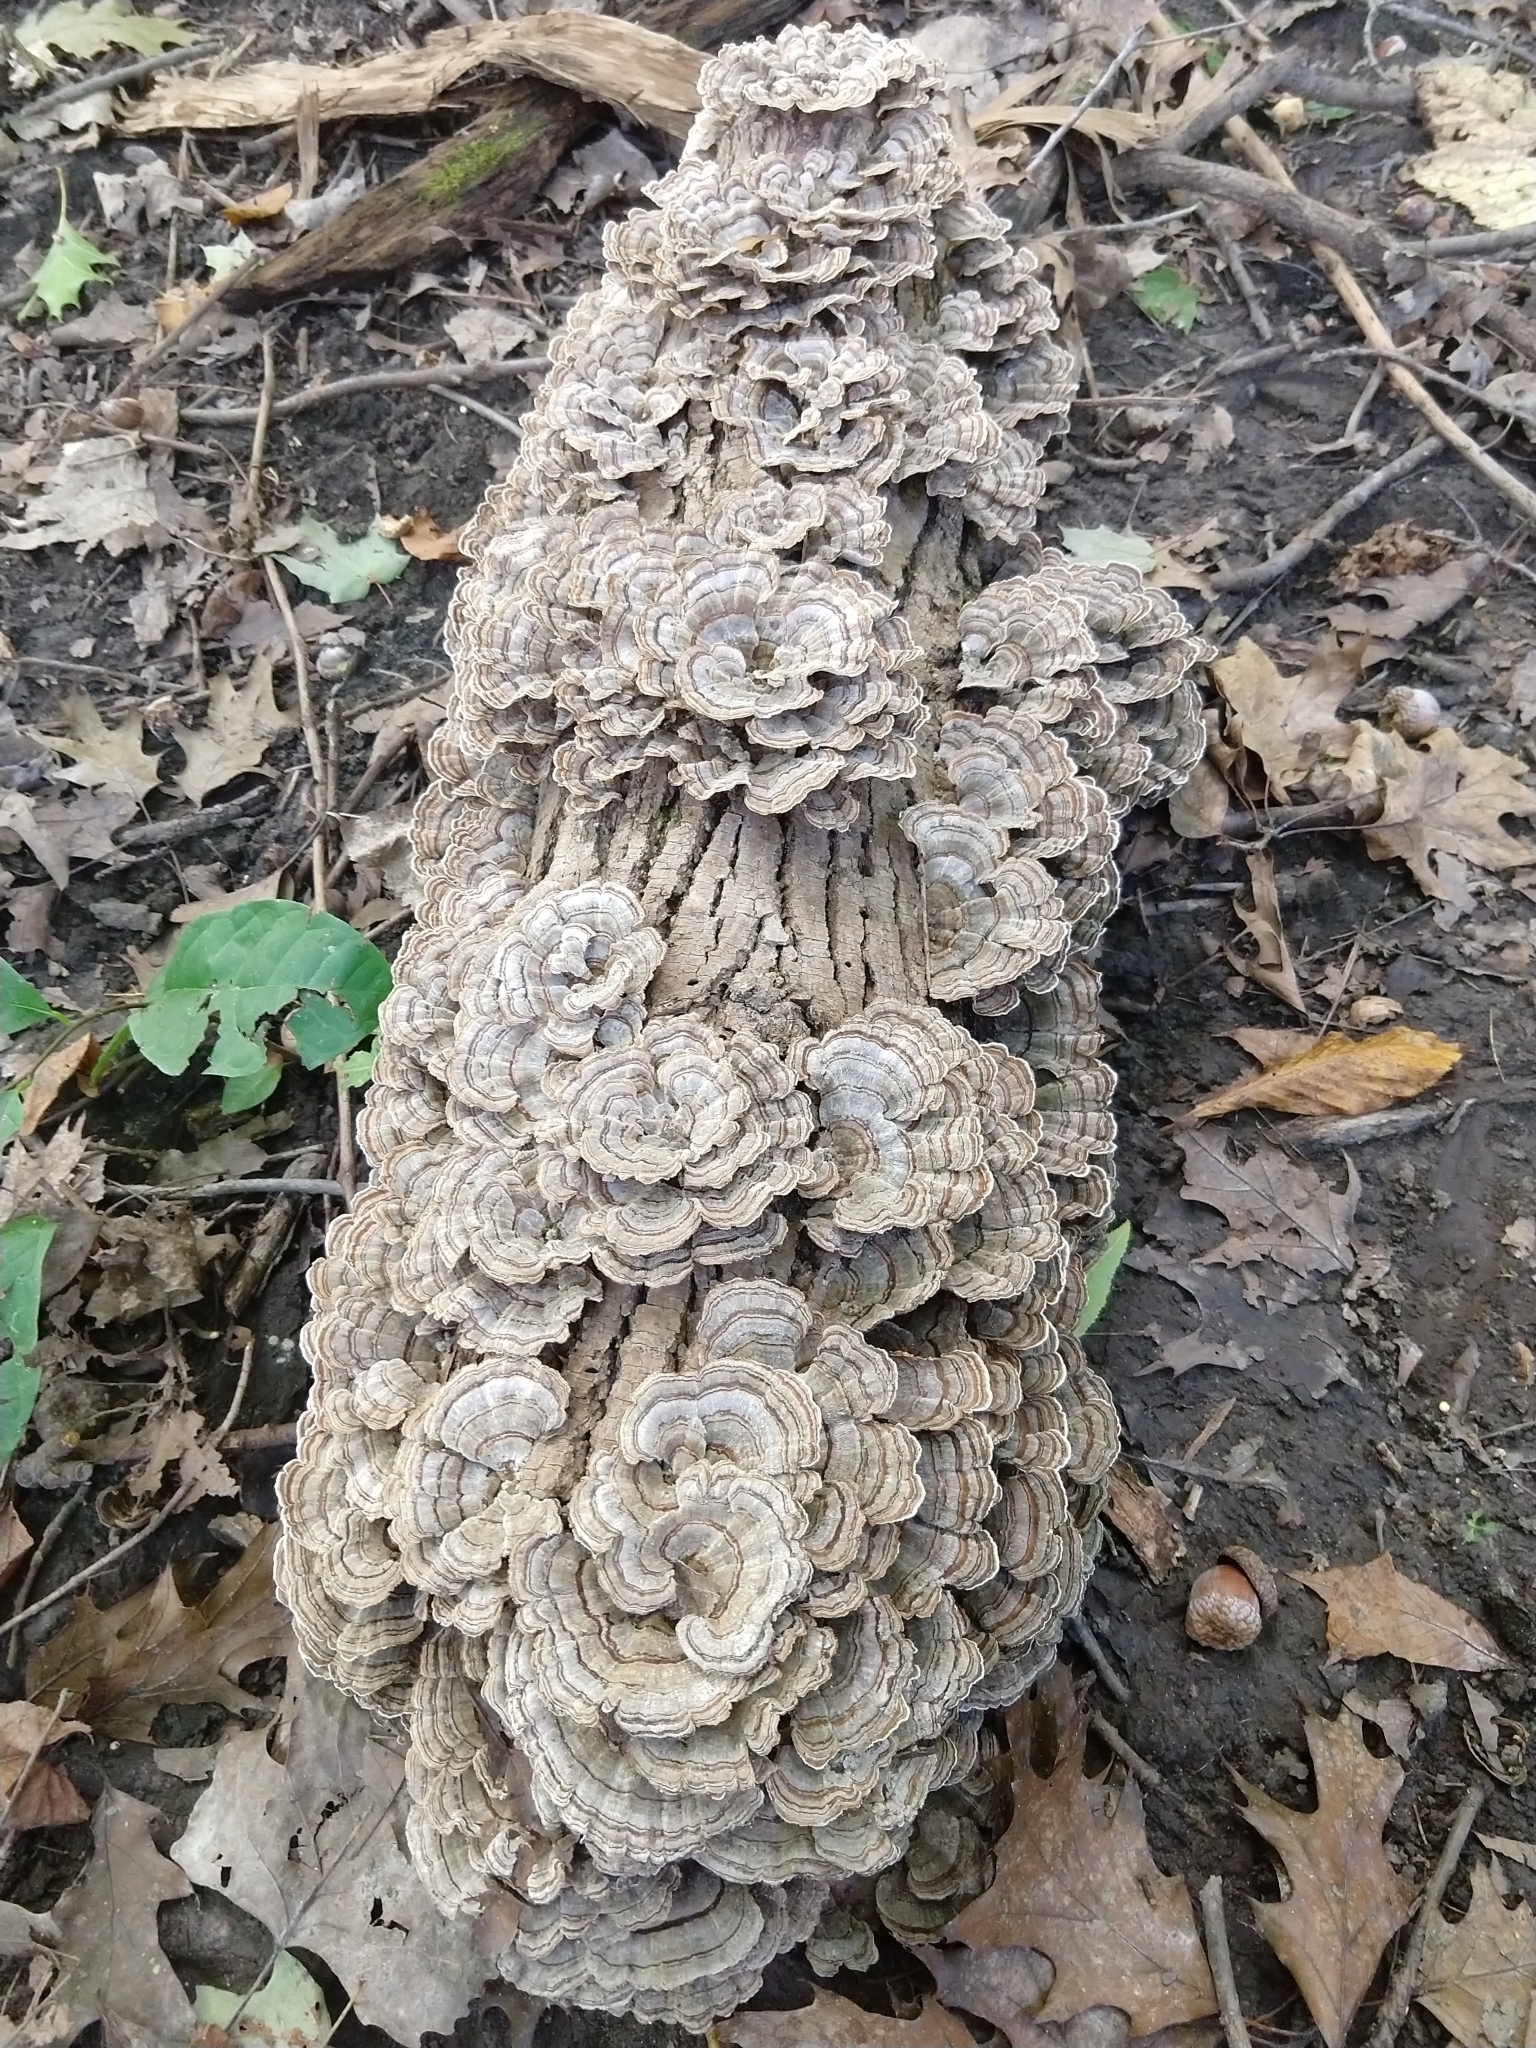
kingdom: Fungi
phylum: Basidiomycota
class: Agaricomycetes
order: Polyporales
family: Polyporaceae
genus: Trametes
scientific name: Trametes versicolor
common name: Turkeytail
